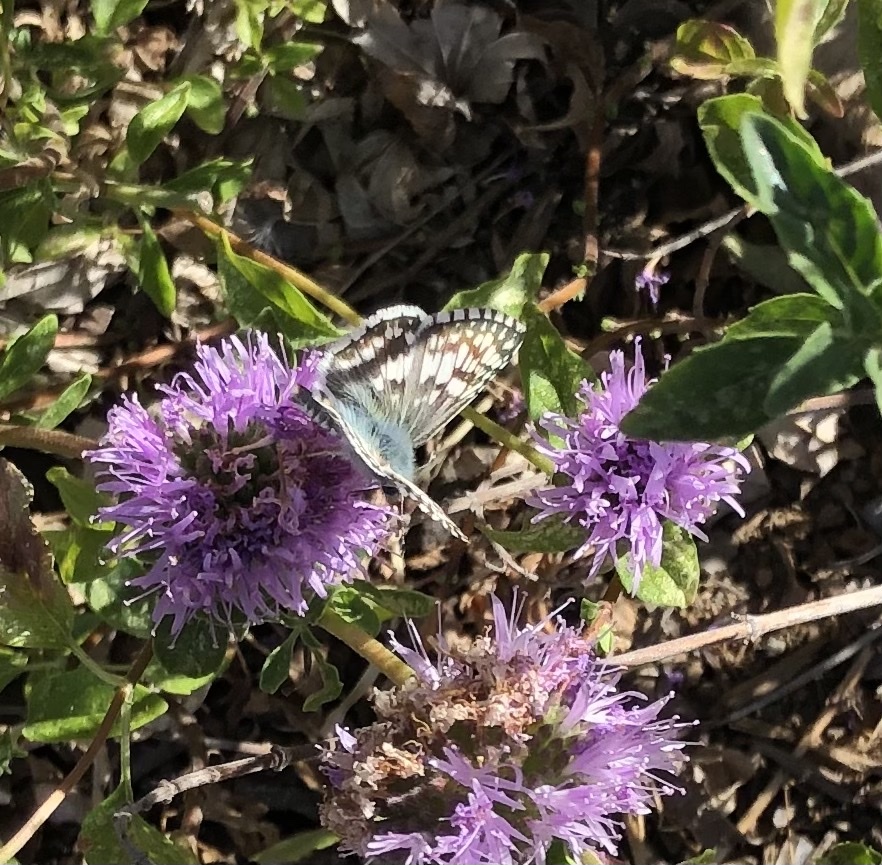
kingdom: Animalia
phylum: Arthropoda
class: Insecta
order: Lepidoptera
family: Hesperiidae
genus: Burnsius
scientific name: Burnsius communis
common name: Common checkered-skipper
